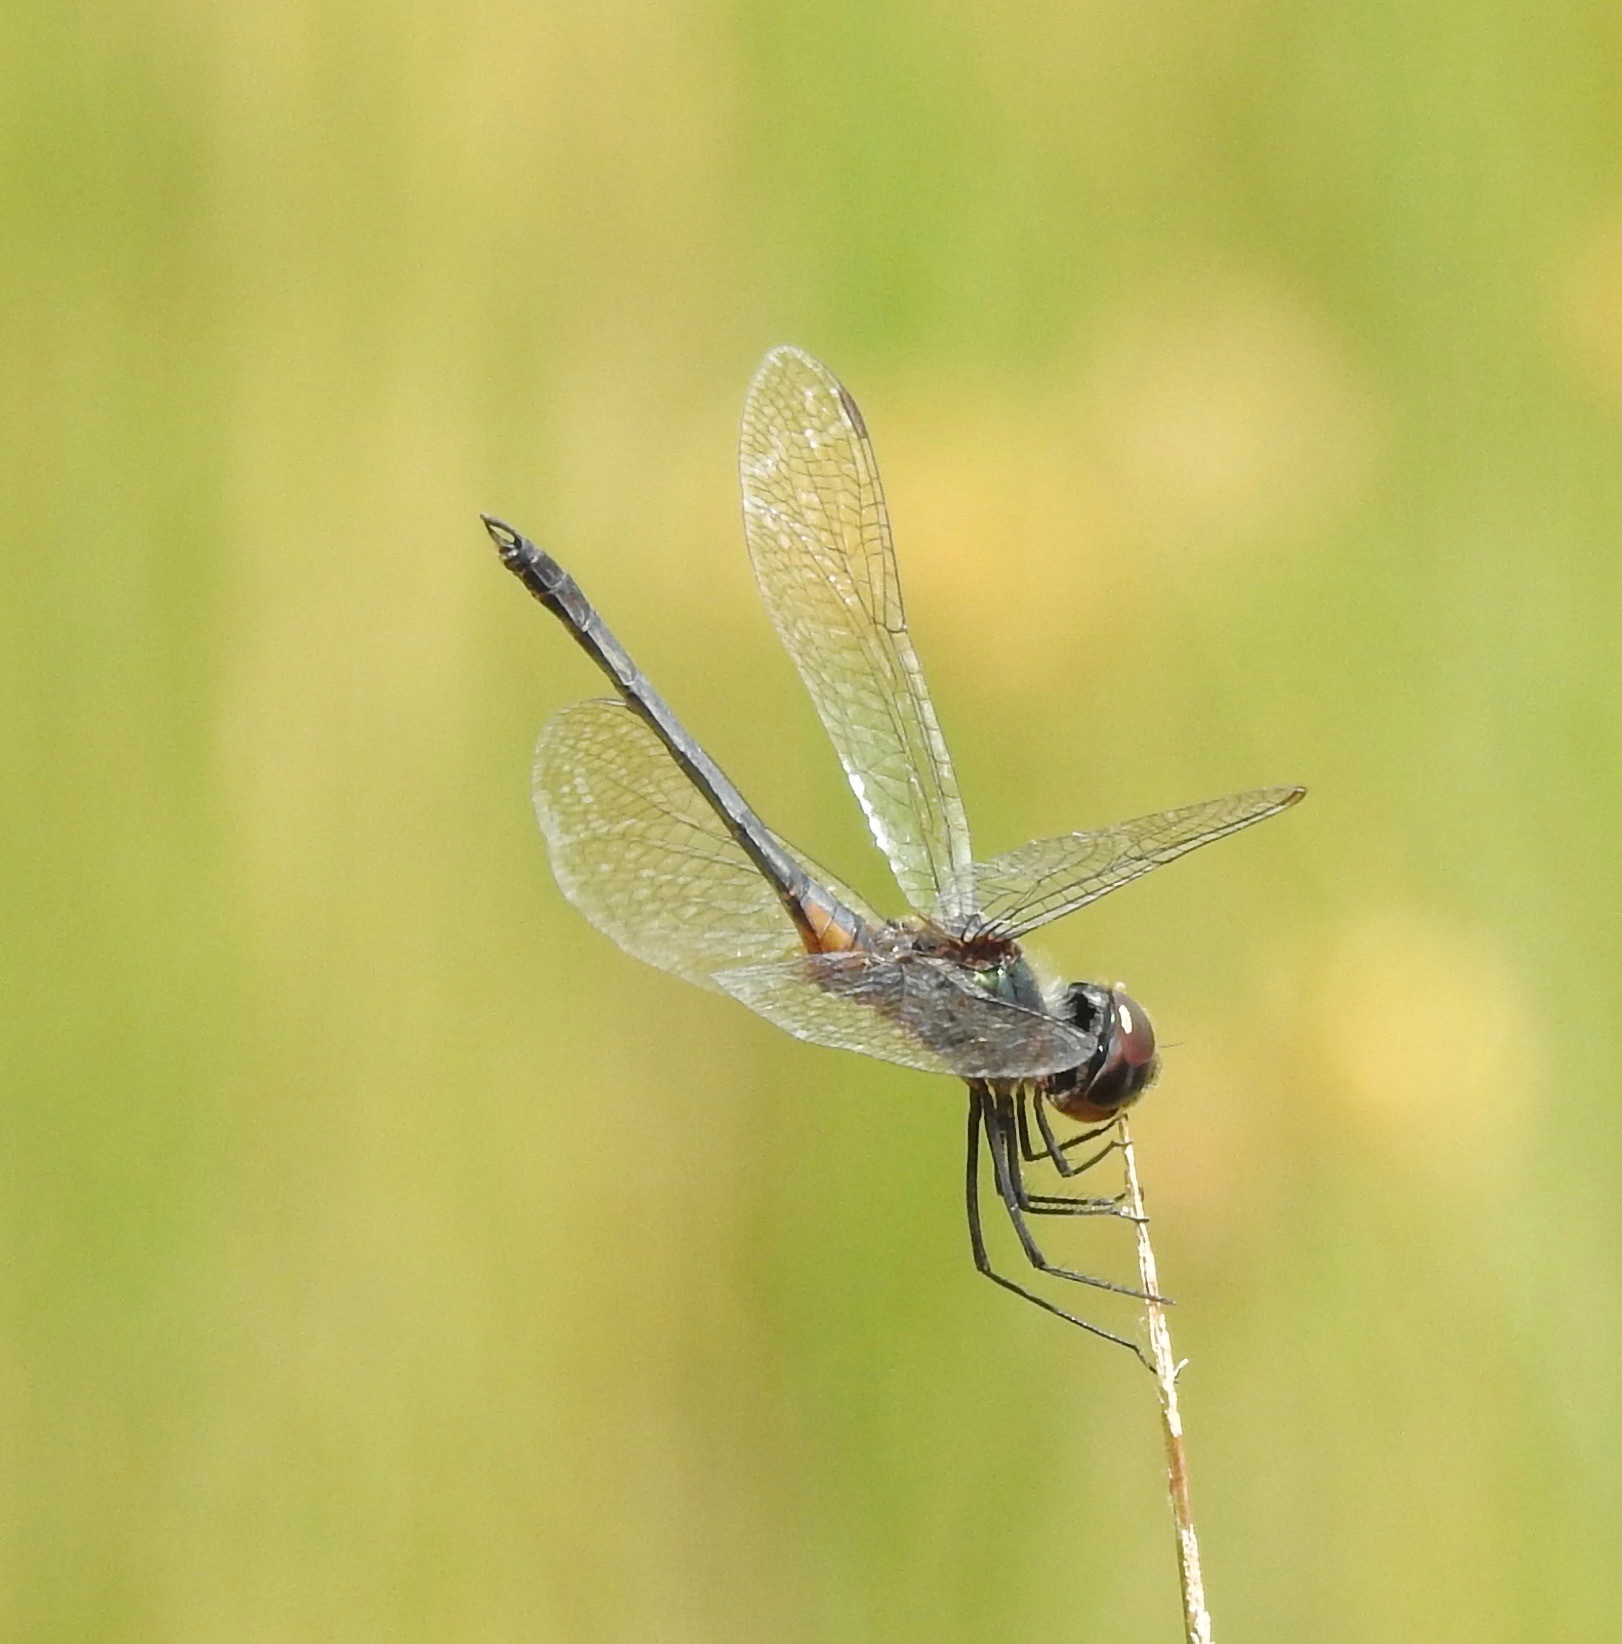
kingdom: Animalia
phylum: Arthropoda
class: Insecta
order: Odonata
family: Libellulidae
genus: Idiataphe
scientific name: Idiataphe cubensis
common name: Metallic pennant
